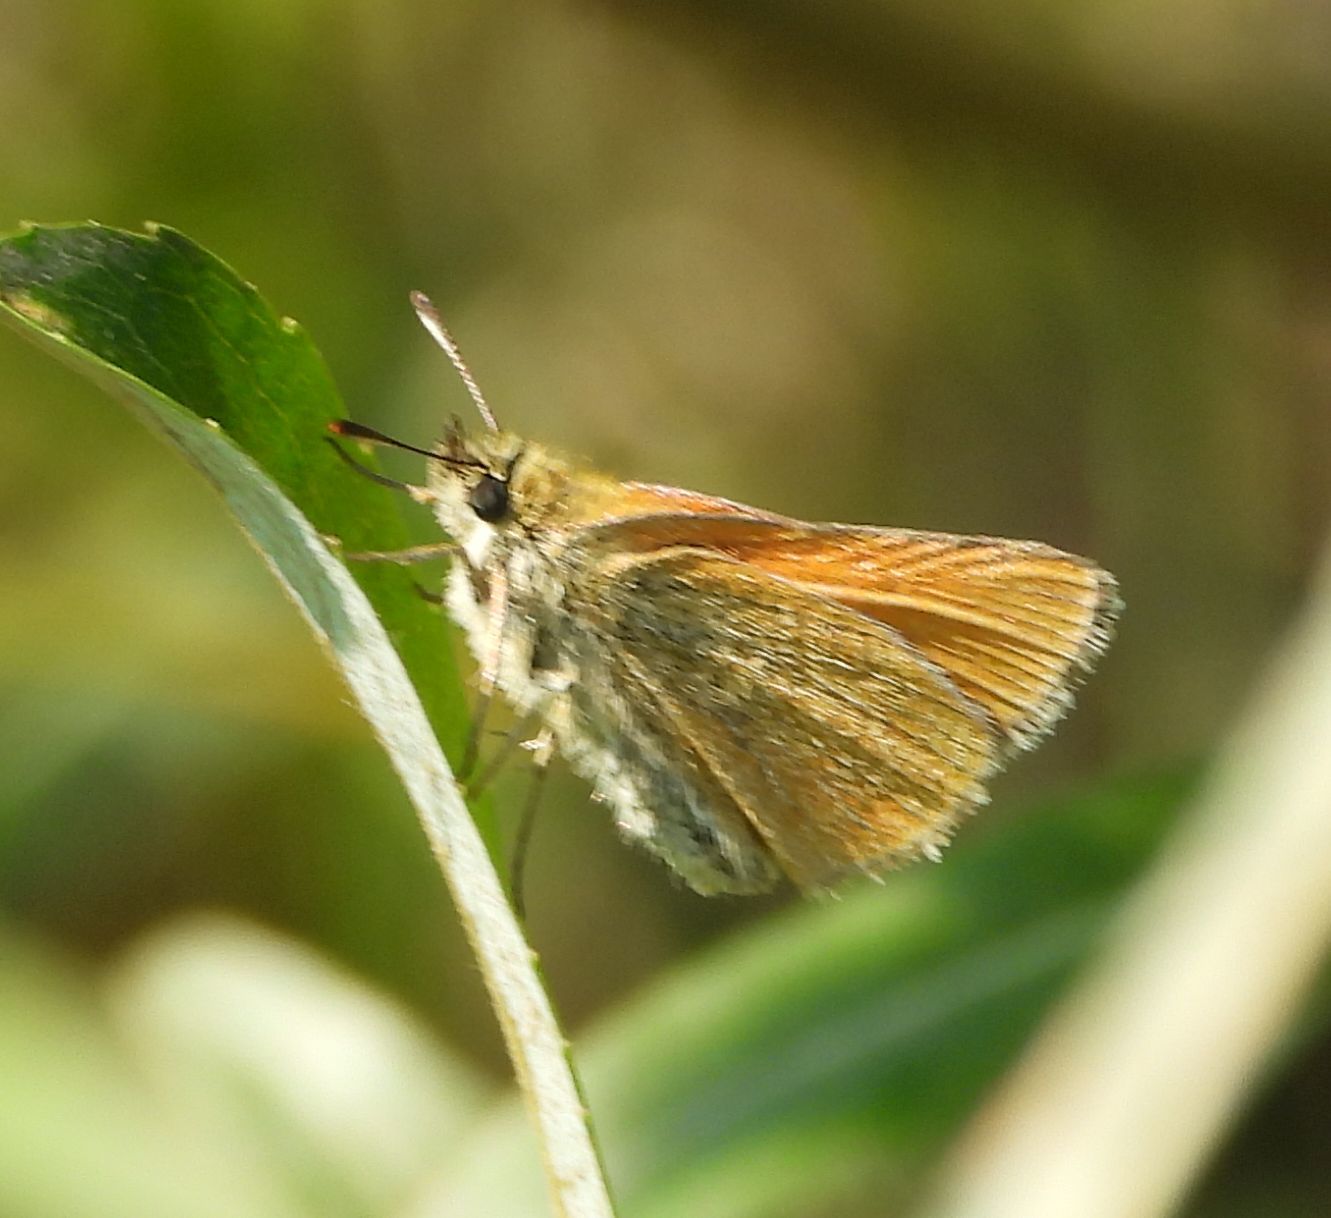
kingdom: Animalia
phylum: Arthropoda
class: Insecta
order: Lepidoptera
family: Hesperiidae
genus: Thymelicus
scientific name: Thymelicus lineola
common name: Essex skipper
